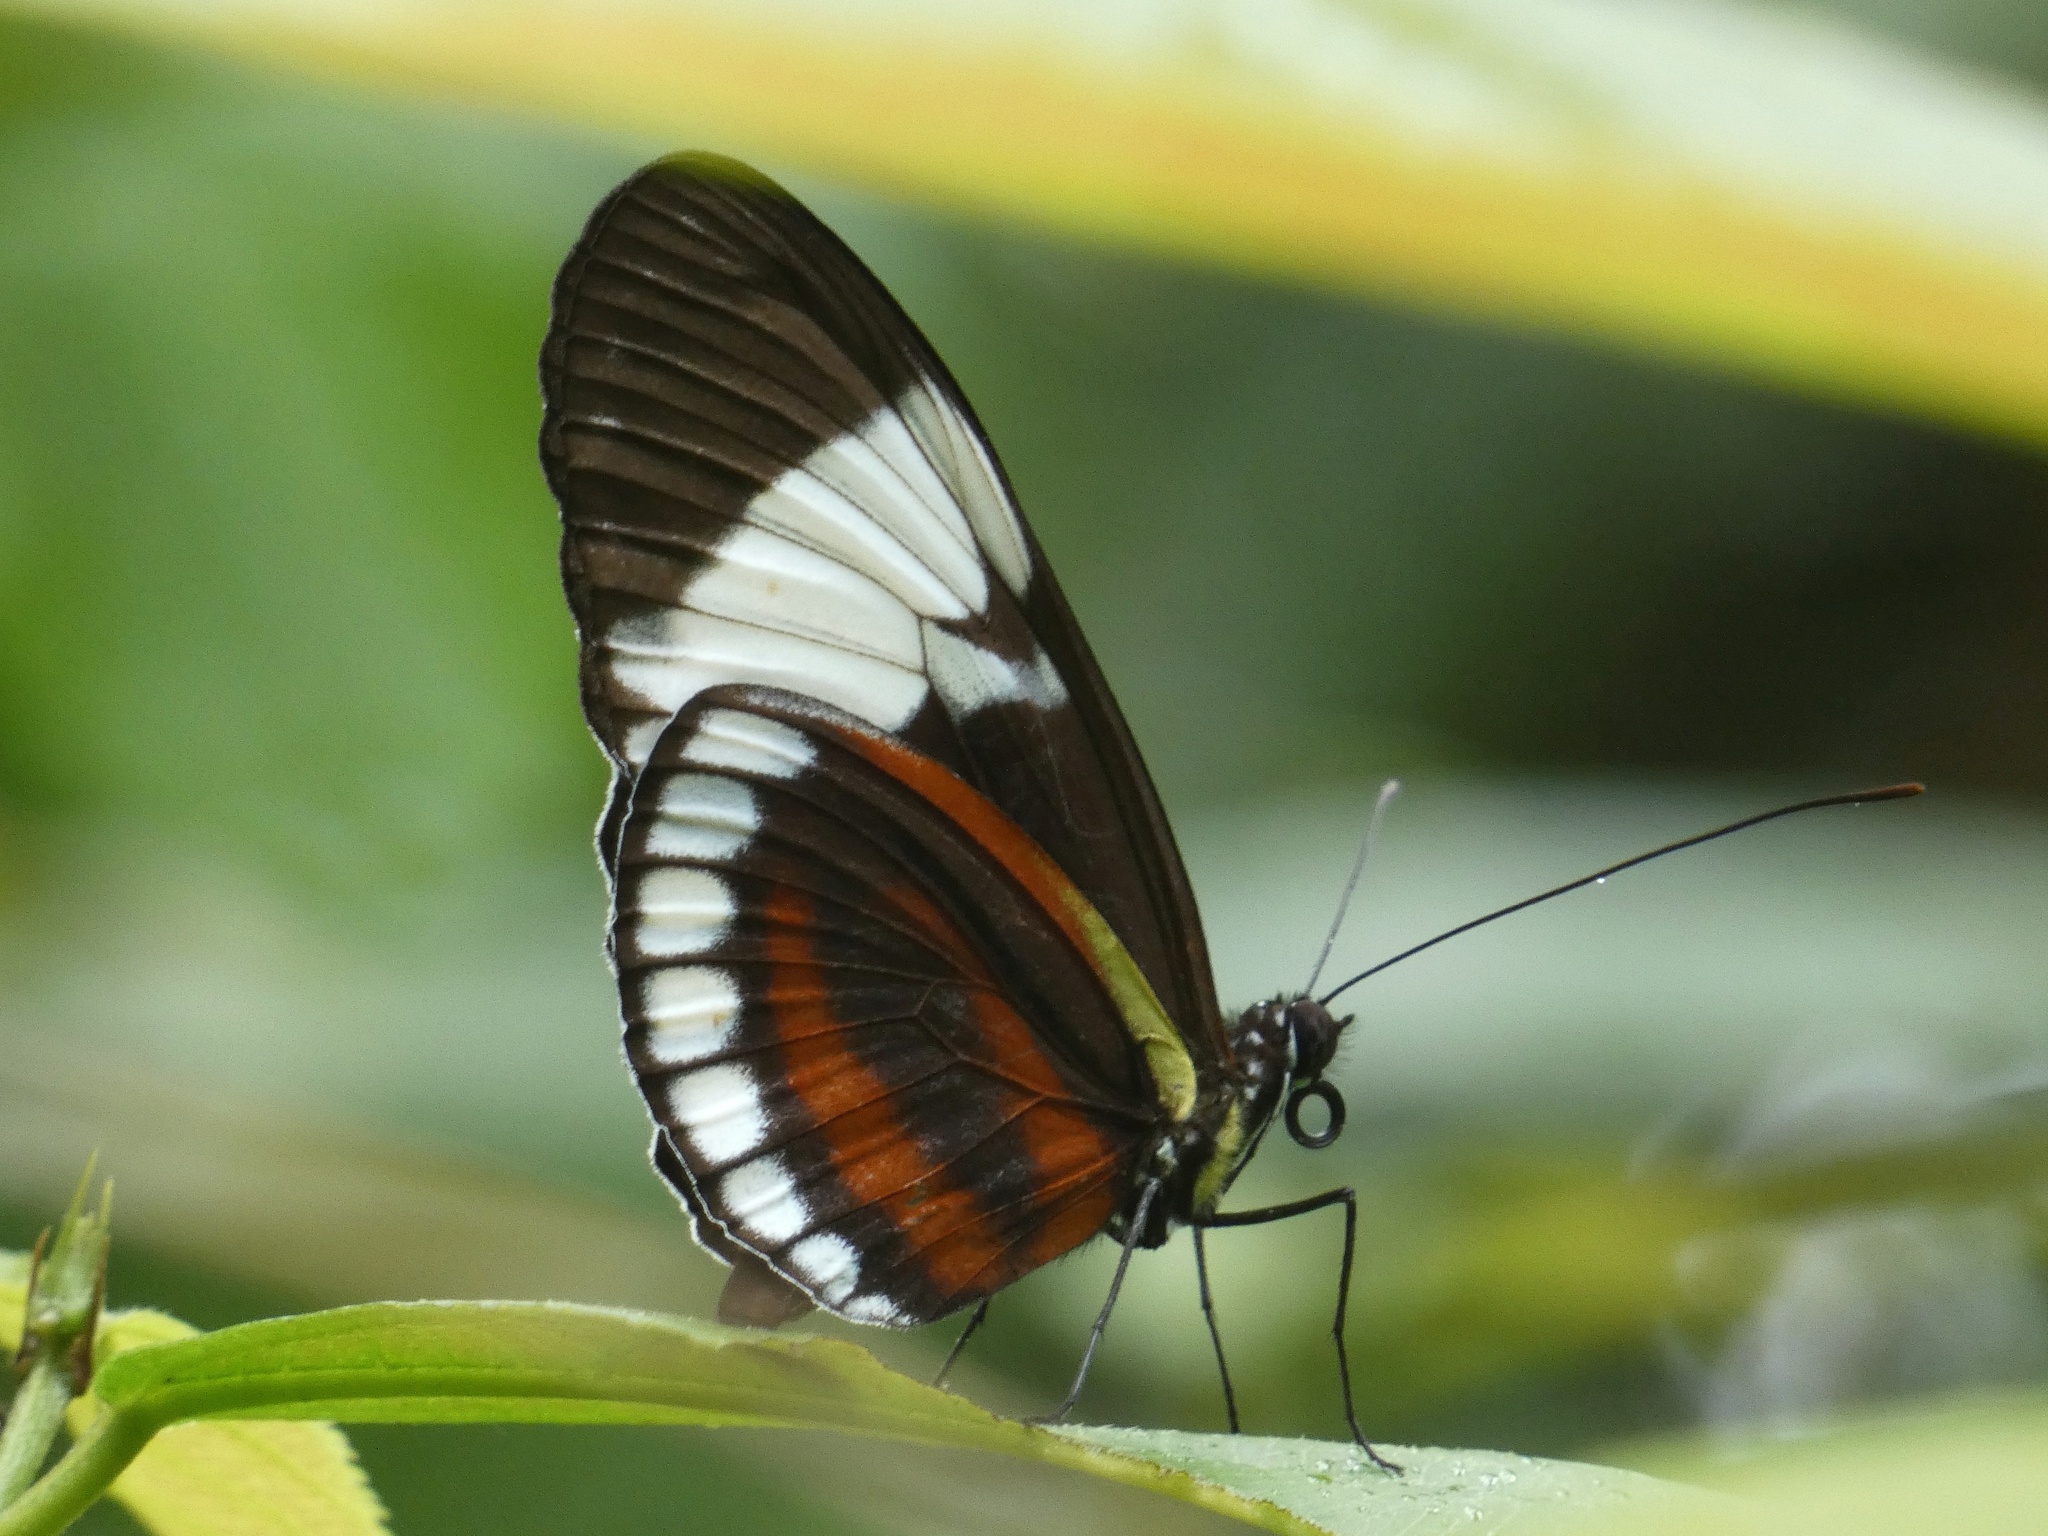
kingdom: Animalia
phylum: Arthropoda
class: Insecta
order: Lepidoptera
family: Nymphalidae
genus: Heliconius
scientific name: Heliconius cydno
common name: Cydno longwing
